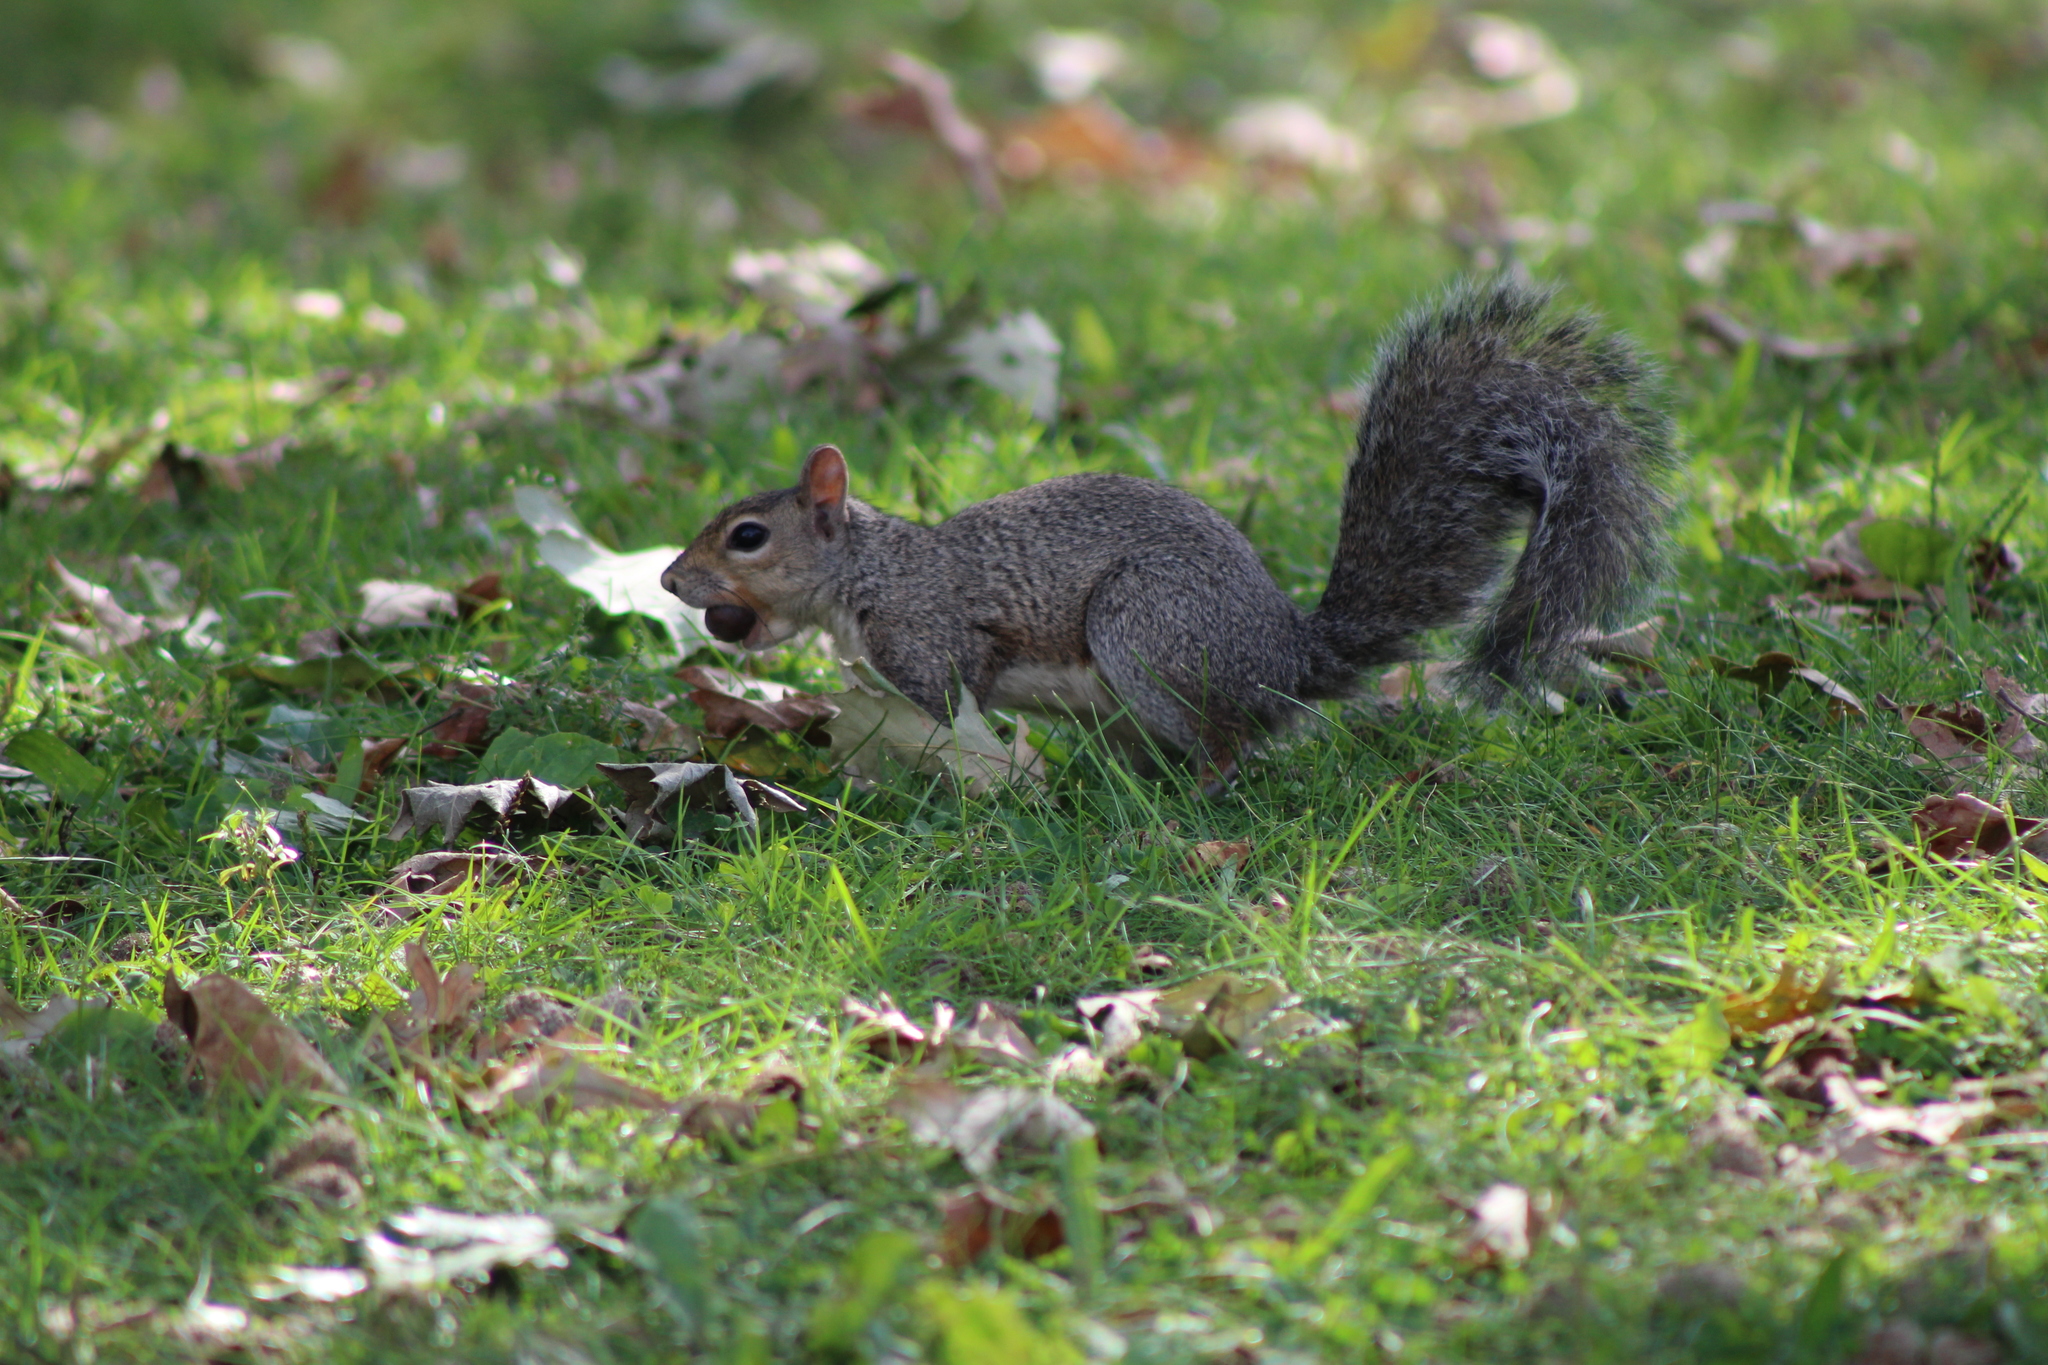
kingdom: Animalia
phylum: Chordata
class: Mammalia
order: Rodentia
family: Sciuridae
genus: Sciurus
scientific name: Sciurus carolinensis
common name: Eastern gray squirrel
